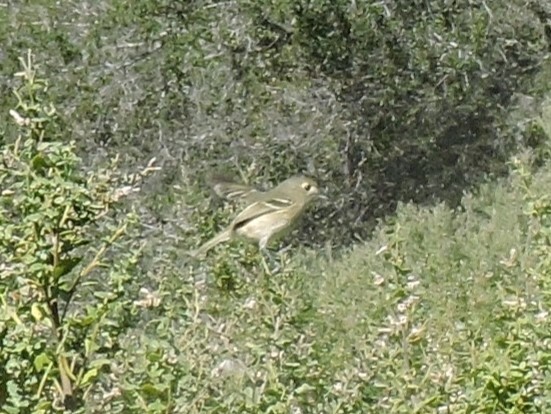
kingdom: Animalia
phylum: Chordata
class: Aves
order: Passeriformes
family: Vireonidae
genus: Vireo
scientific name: Vireo huttoni
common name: Hutton's vireo
